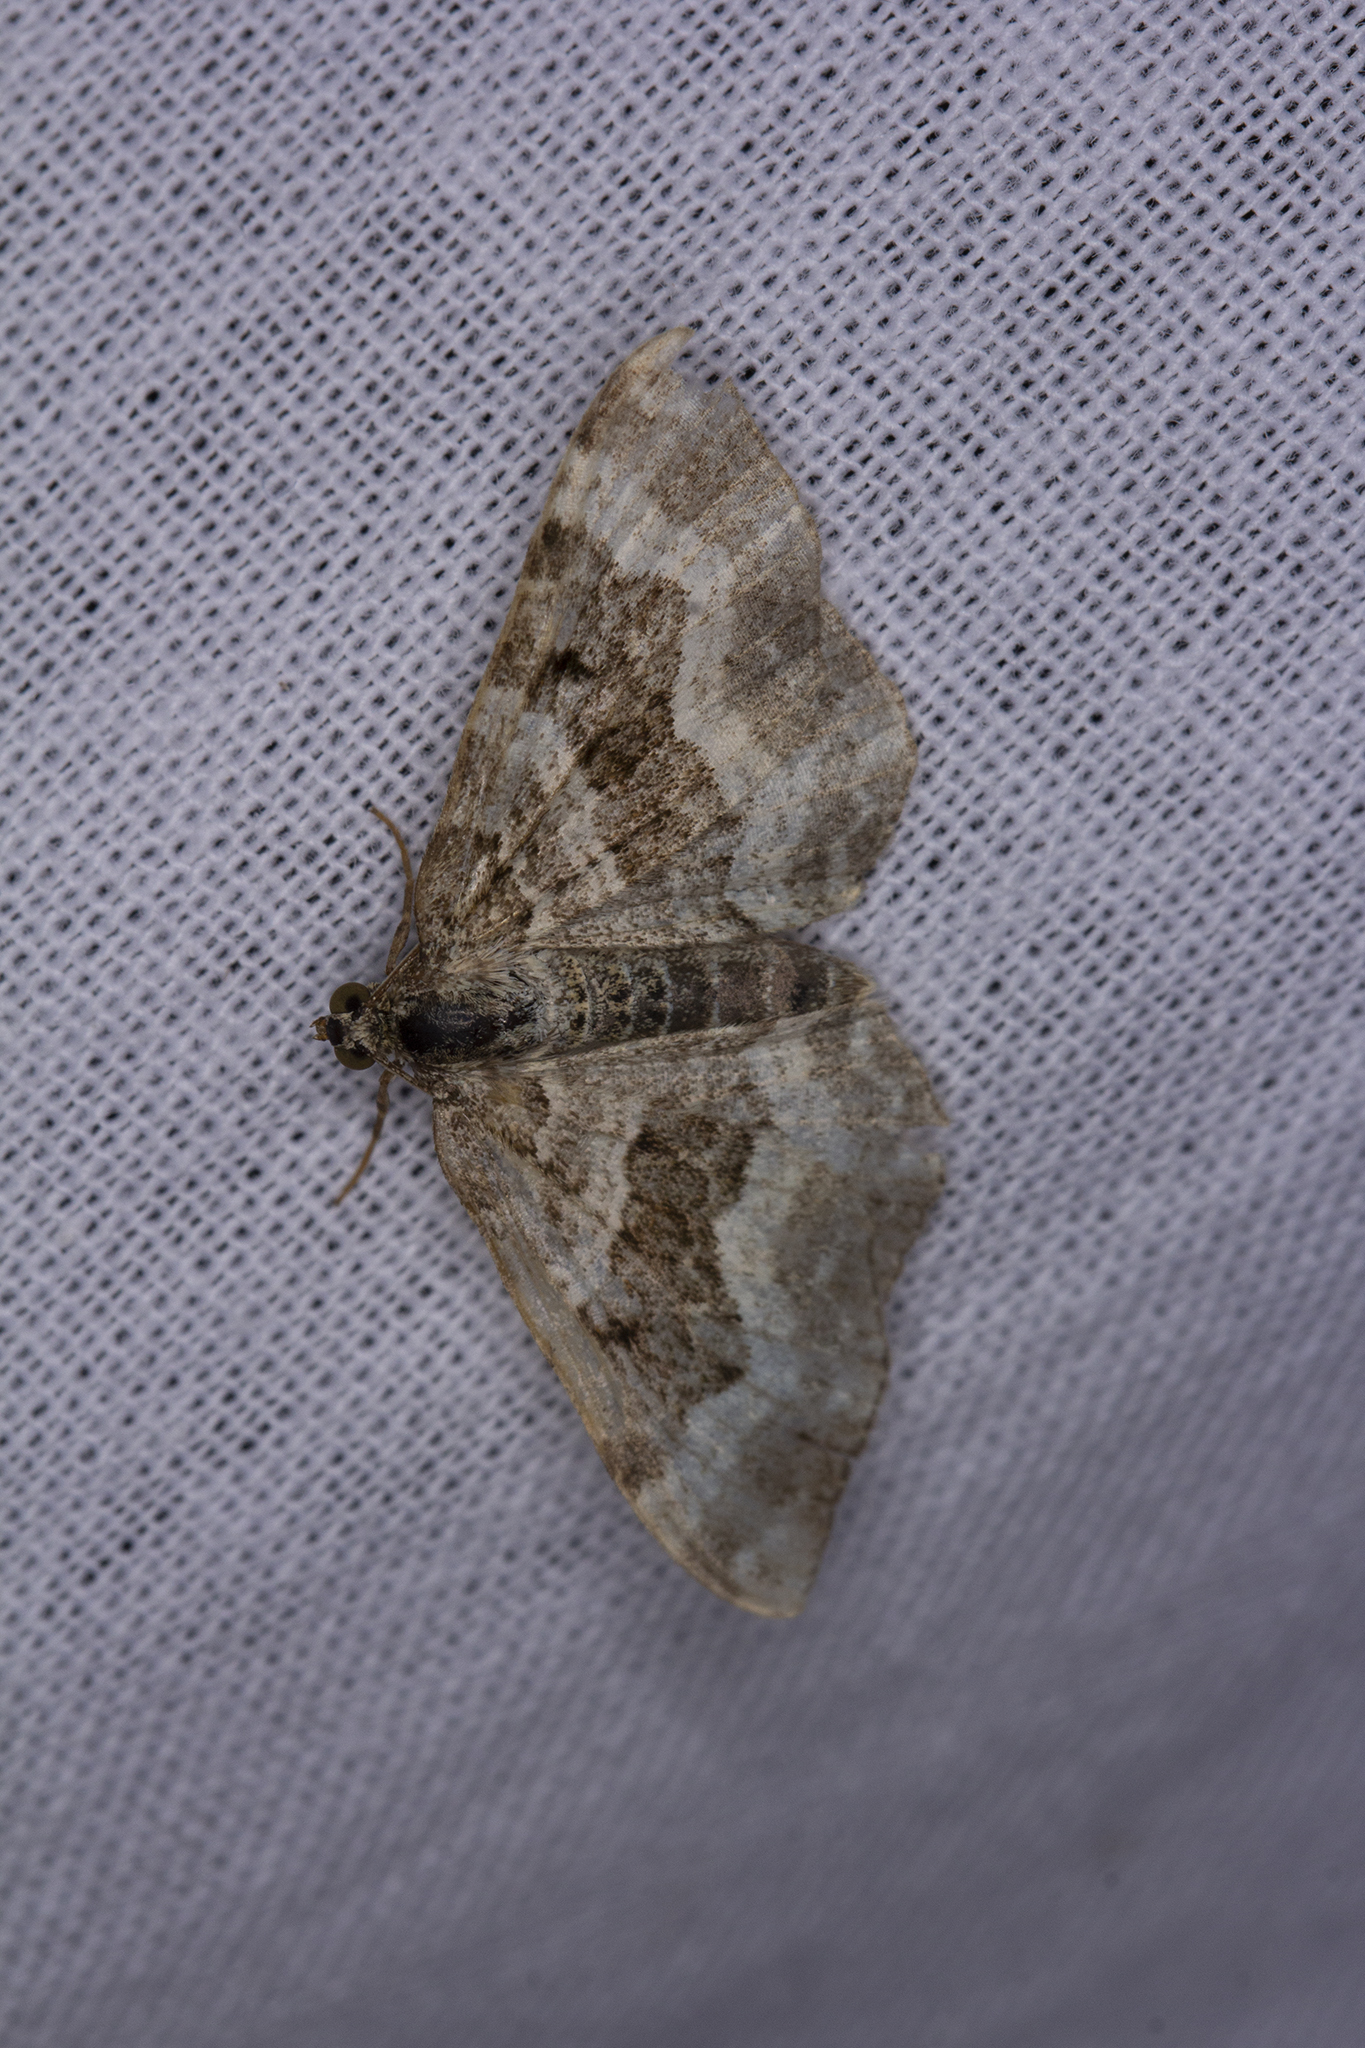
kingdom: Animalia
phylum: Arthropoda
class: Insecta
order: Lepidoptera
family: Geometridae
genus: Epirrhoe
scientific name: Epirrhoe alternata
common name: Common carpet
